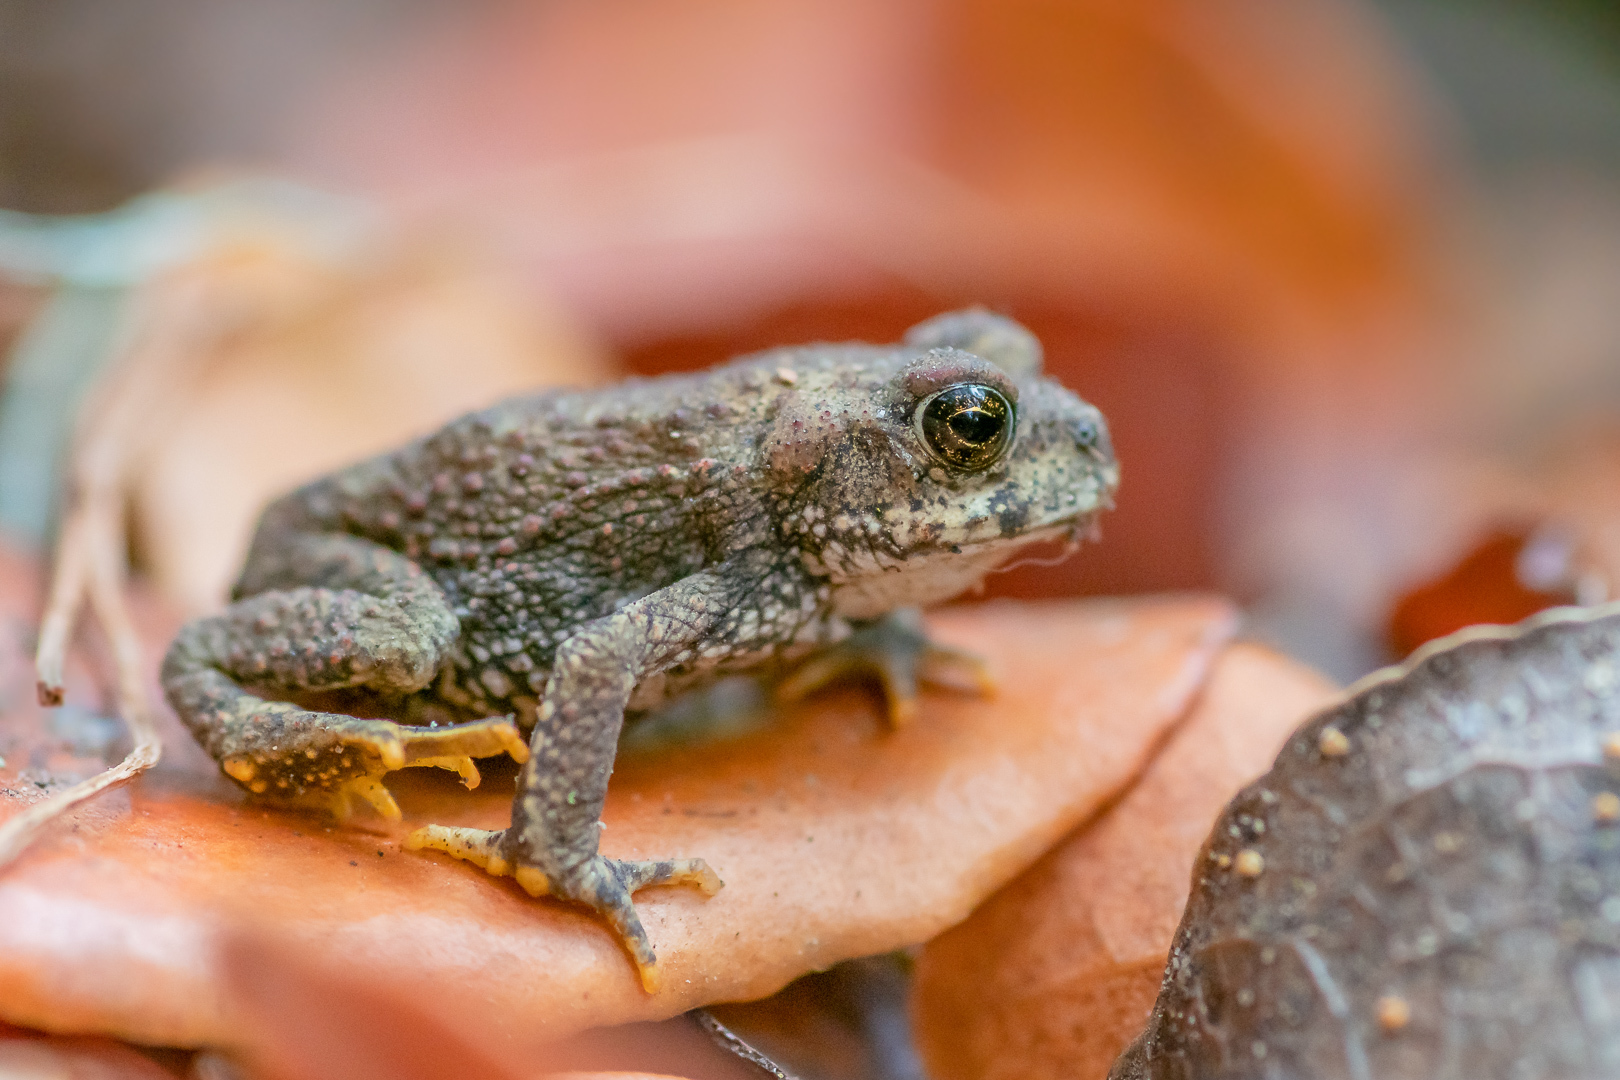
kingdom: Animalia
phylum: Chordata
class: Amphibia
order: Anura
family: Bufonidae
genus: Rhinella
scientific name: Rhinella arunco
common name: Concepcion toad
